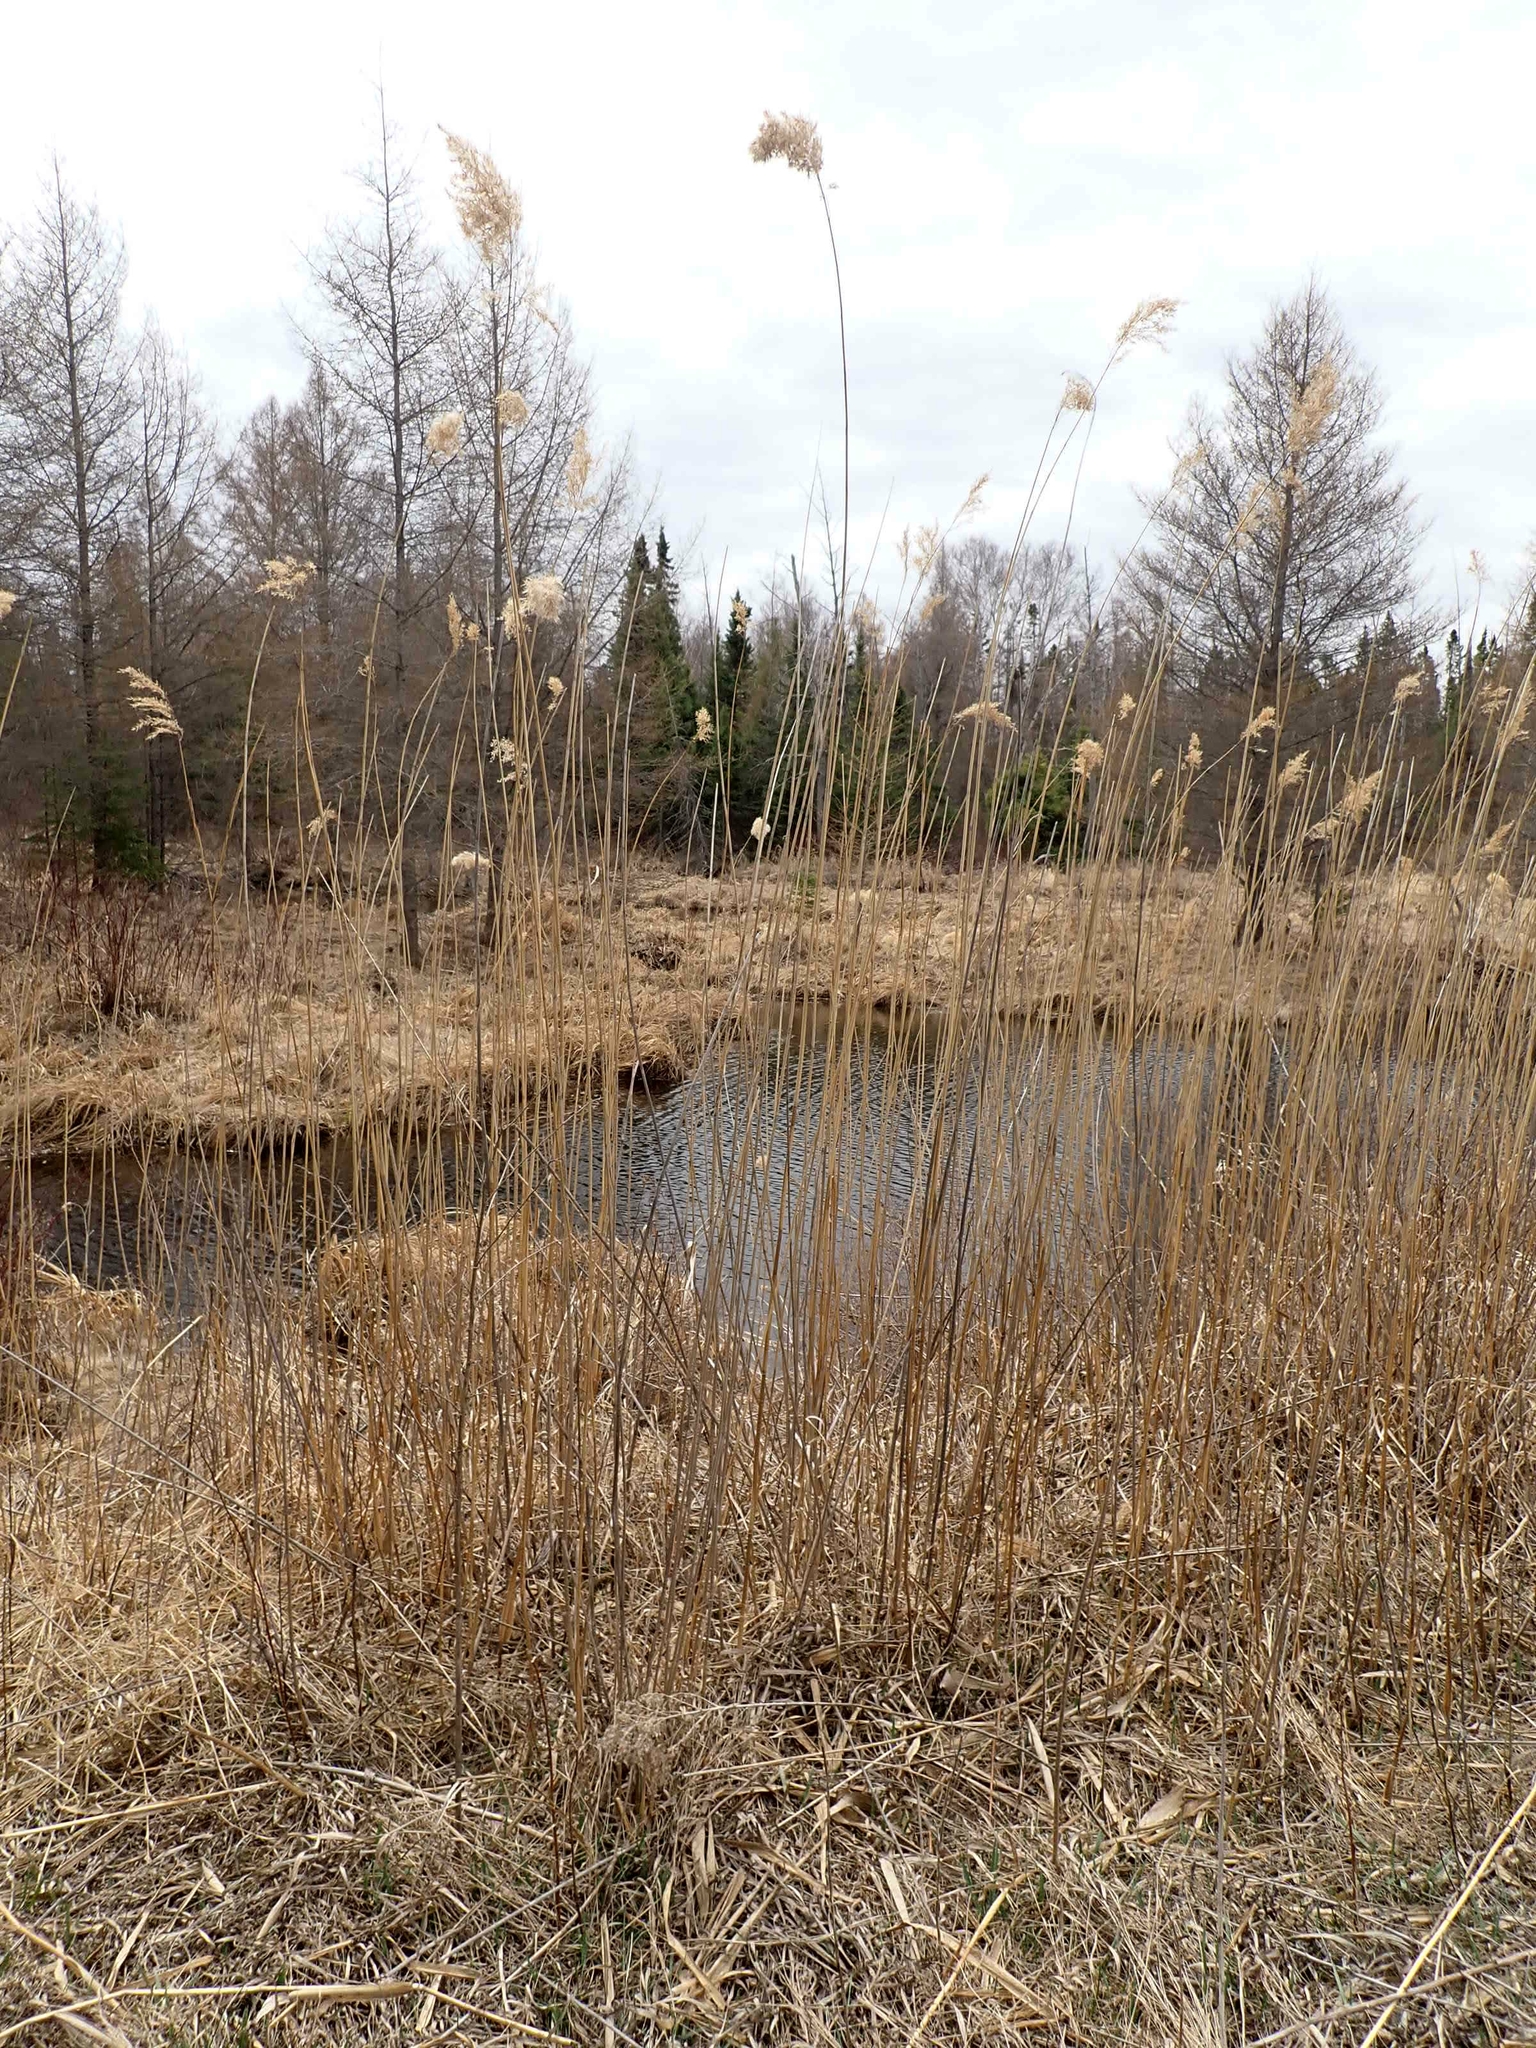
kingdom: Plantae
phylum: Tracheophyta
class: Liliopsida
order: Poales
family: Poaceae
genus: Phragmites
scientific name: Phragmites australis
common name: Common reed
